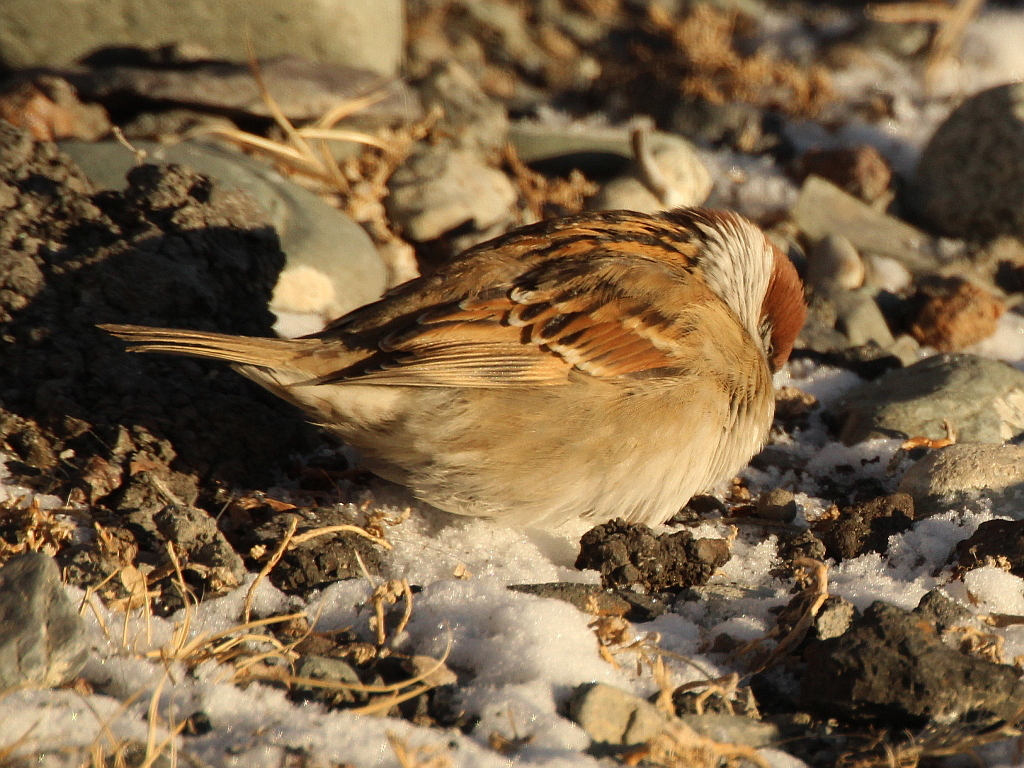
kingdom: Animalia
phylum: Chordata
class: Aves
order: Passeriformes
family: Passeridae
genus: Passer
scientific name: Passer montanus
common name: Eurasian tree sparrow
